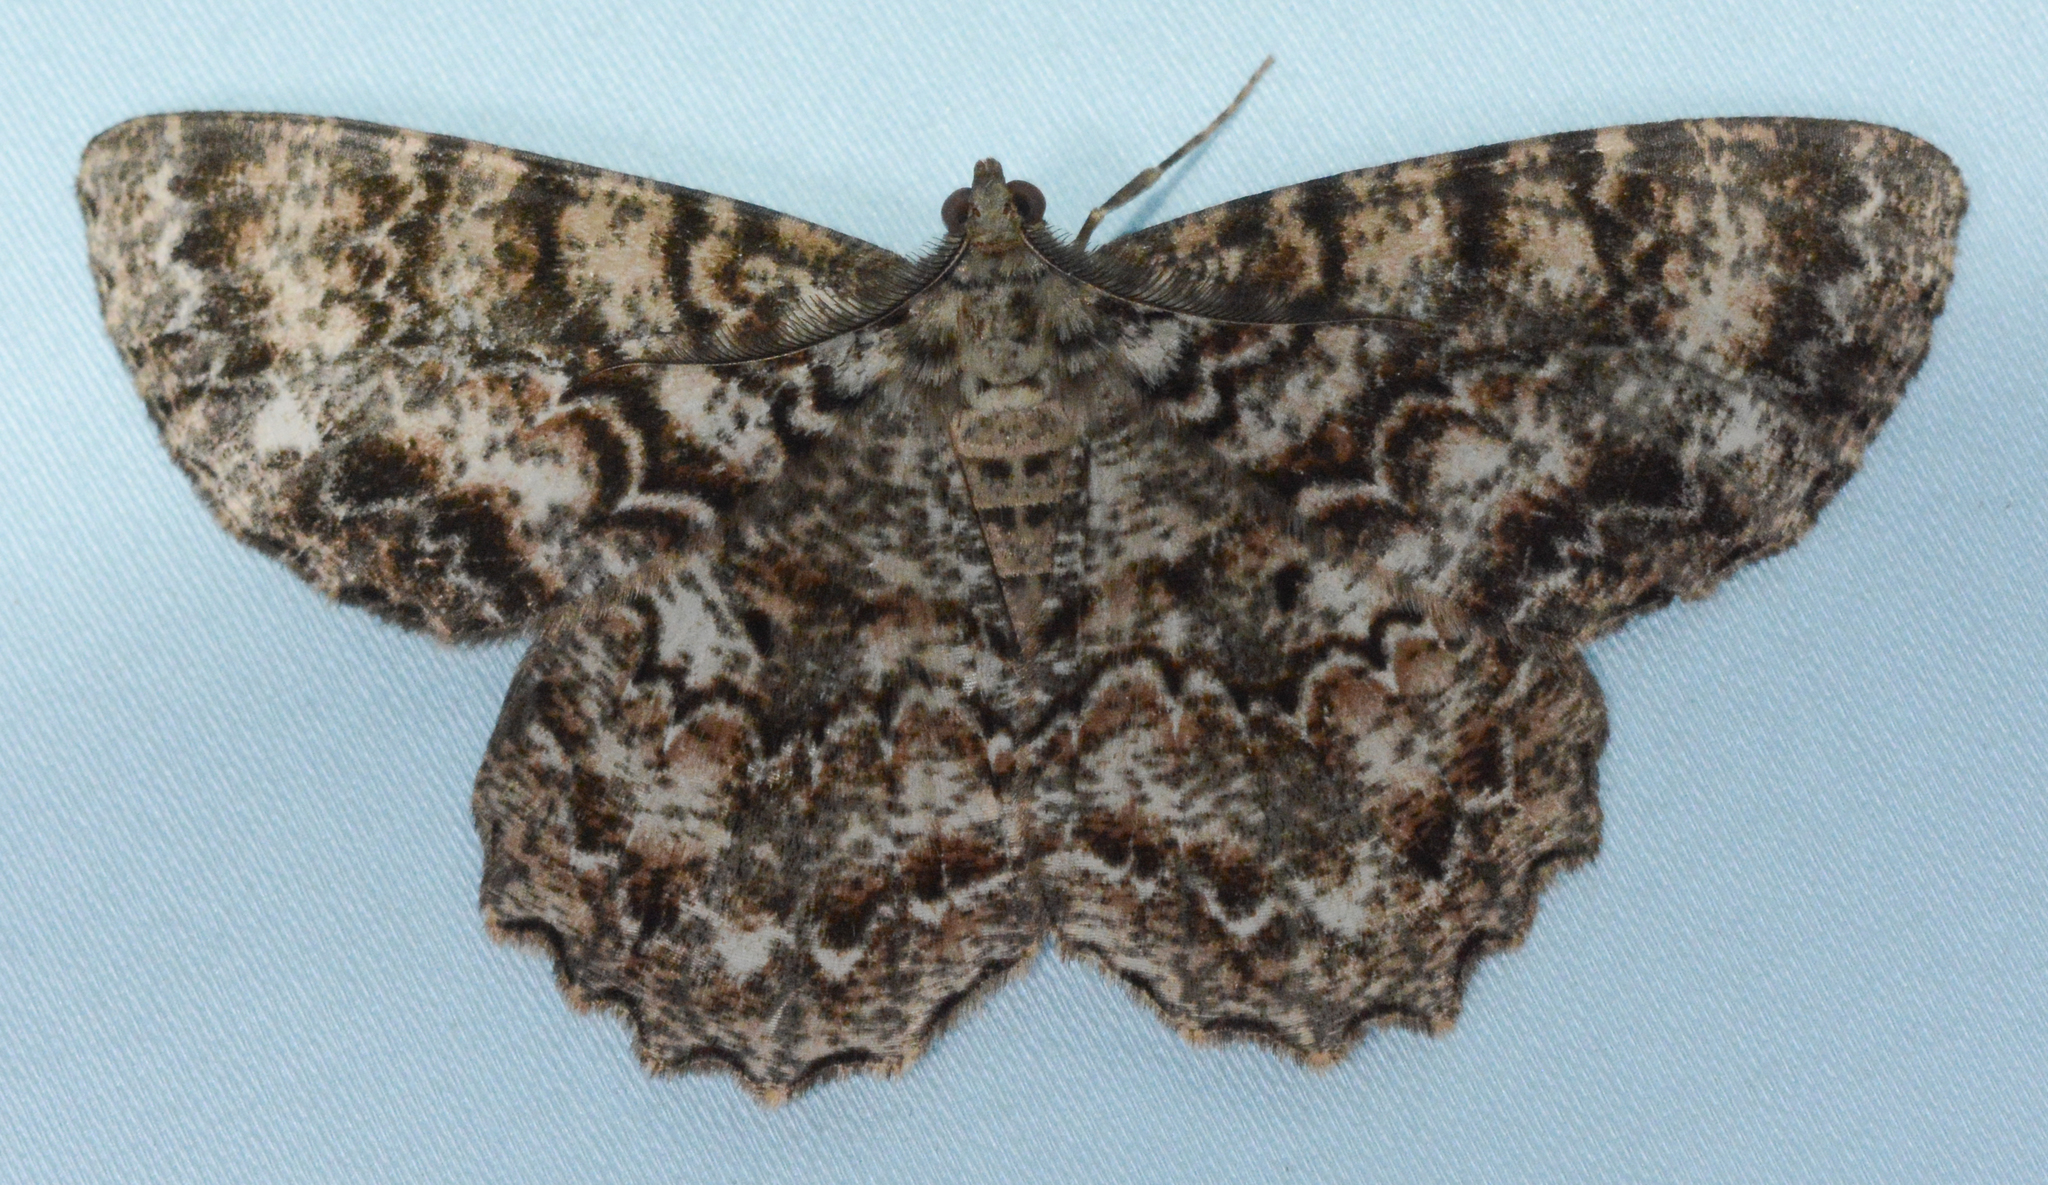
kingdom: Animalia
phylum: Arthropoda
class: Insecta
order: Lepidoptera
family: Geometridae
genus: Epimecis
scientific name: Epimecis hortaria
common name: Tulip-tree beauty
